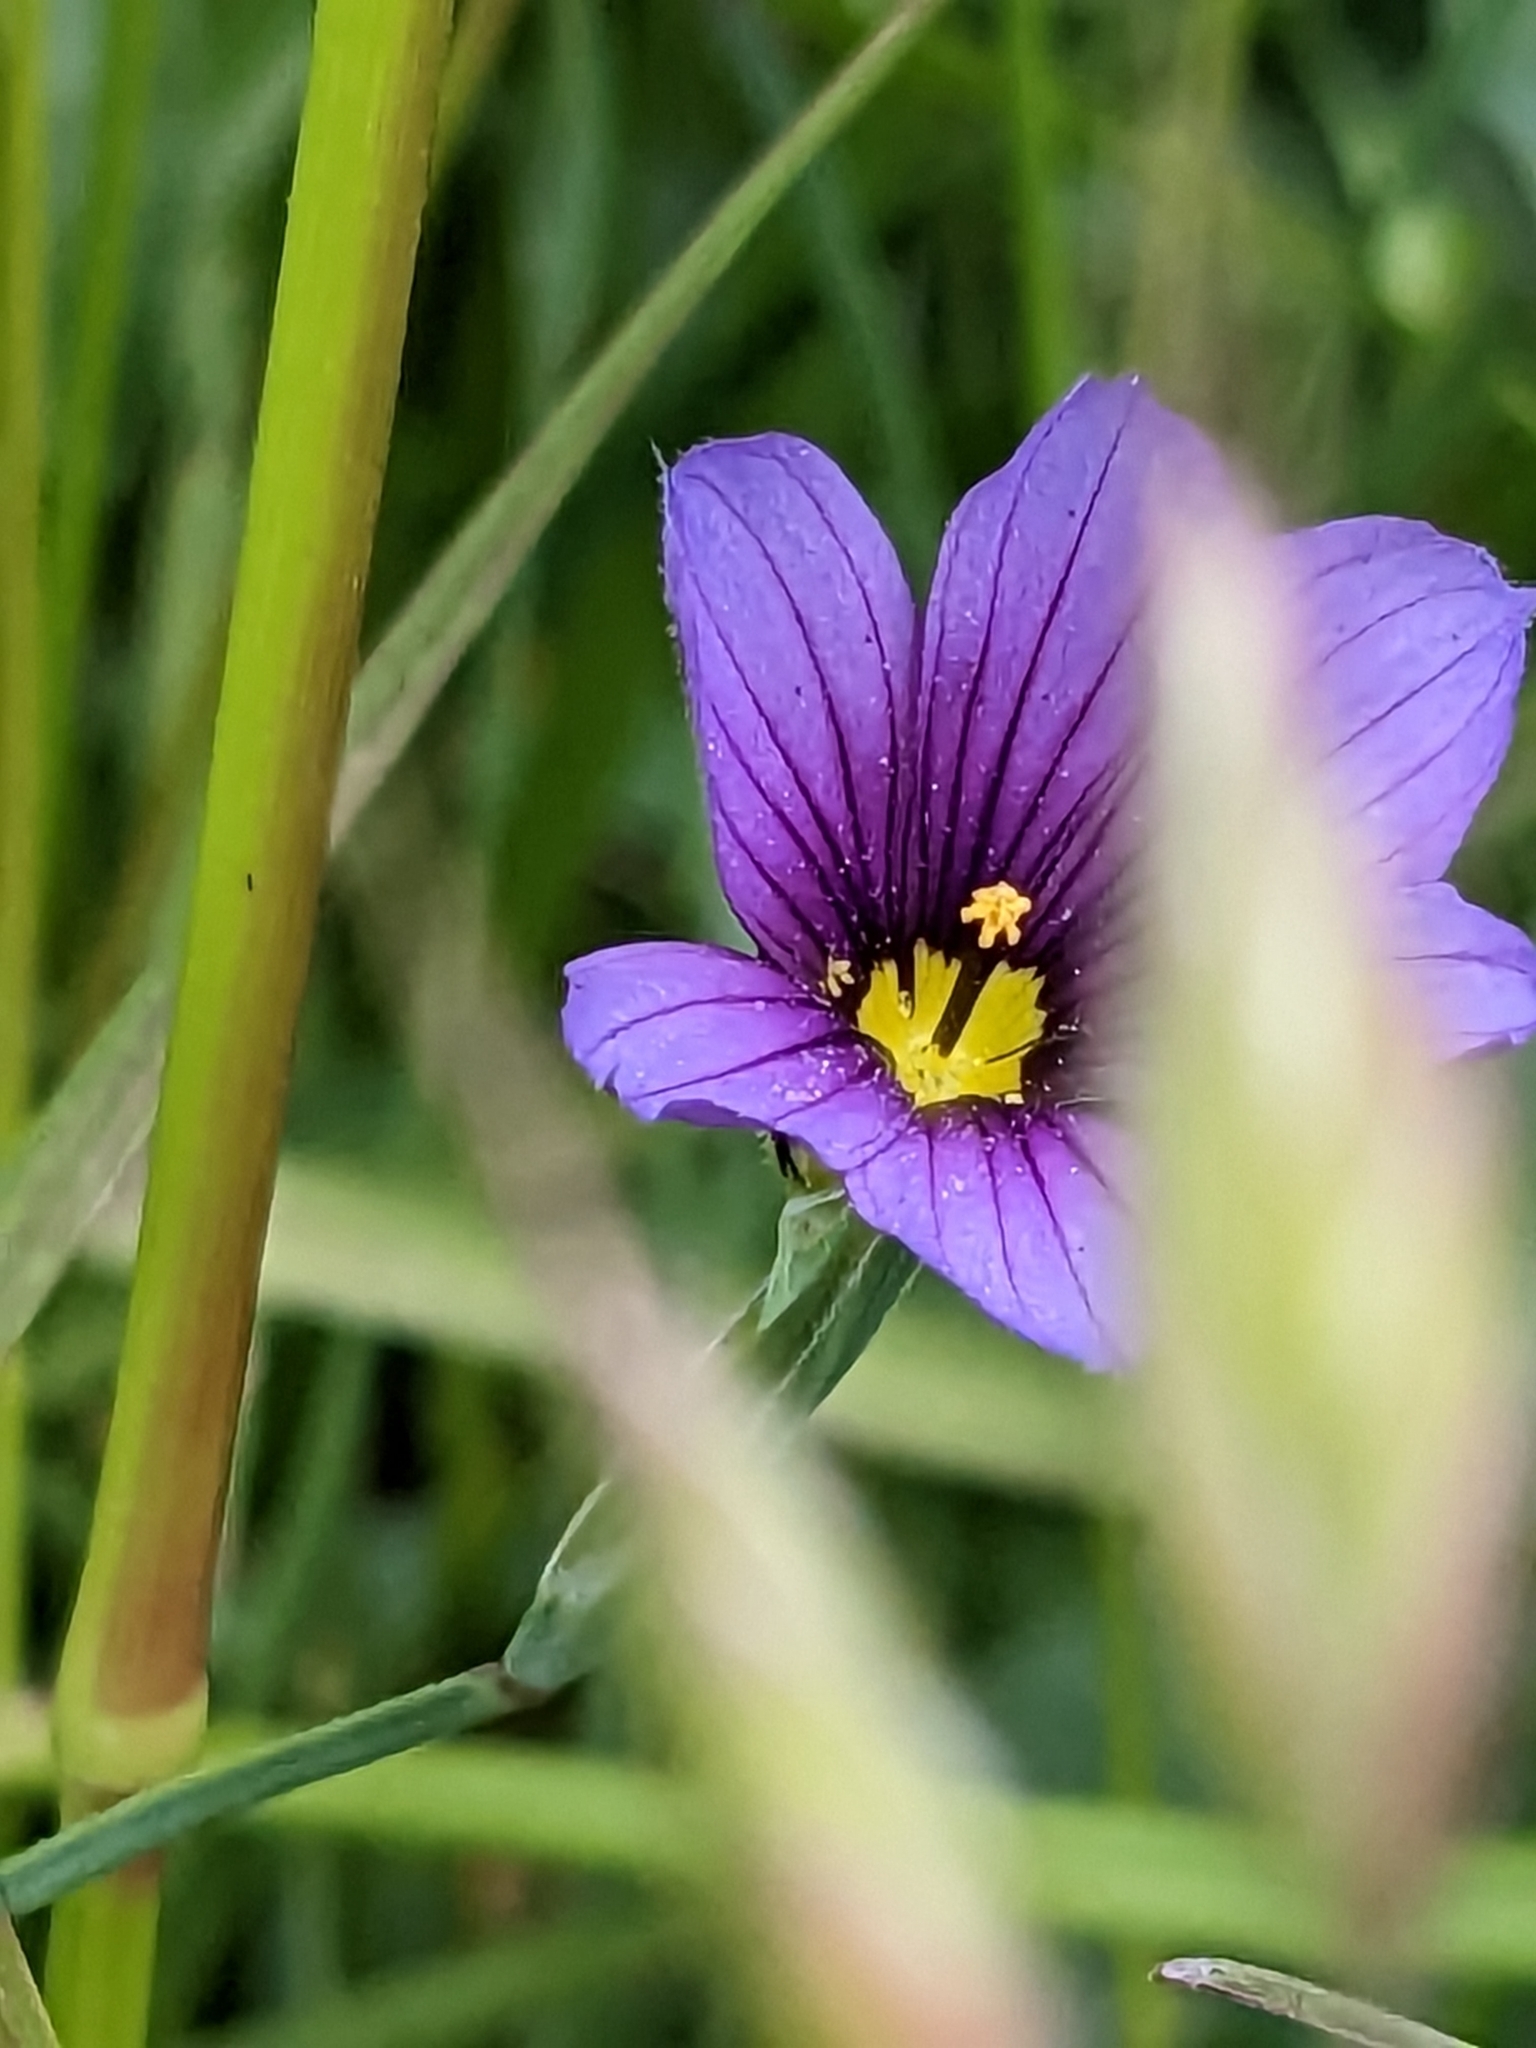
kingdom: Plantae
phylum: Tracheophyta
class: Liliopsida
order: Asparagales
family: Iridaceae
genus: Sisyrinchium
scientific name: Sisyrinchium bellum
